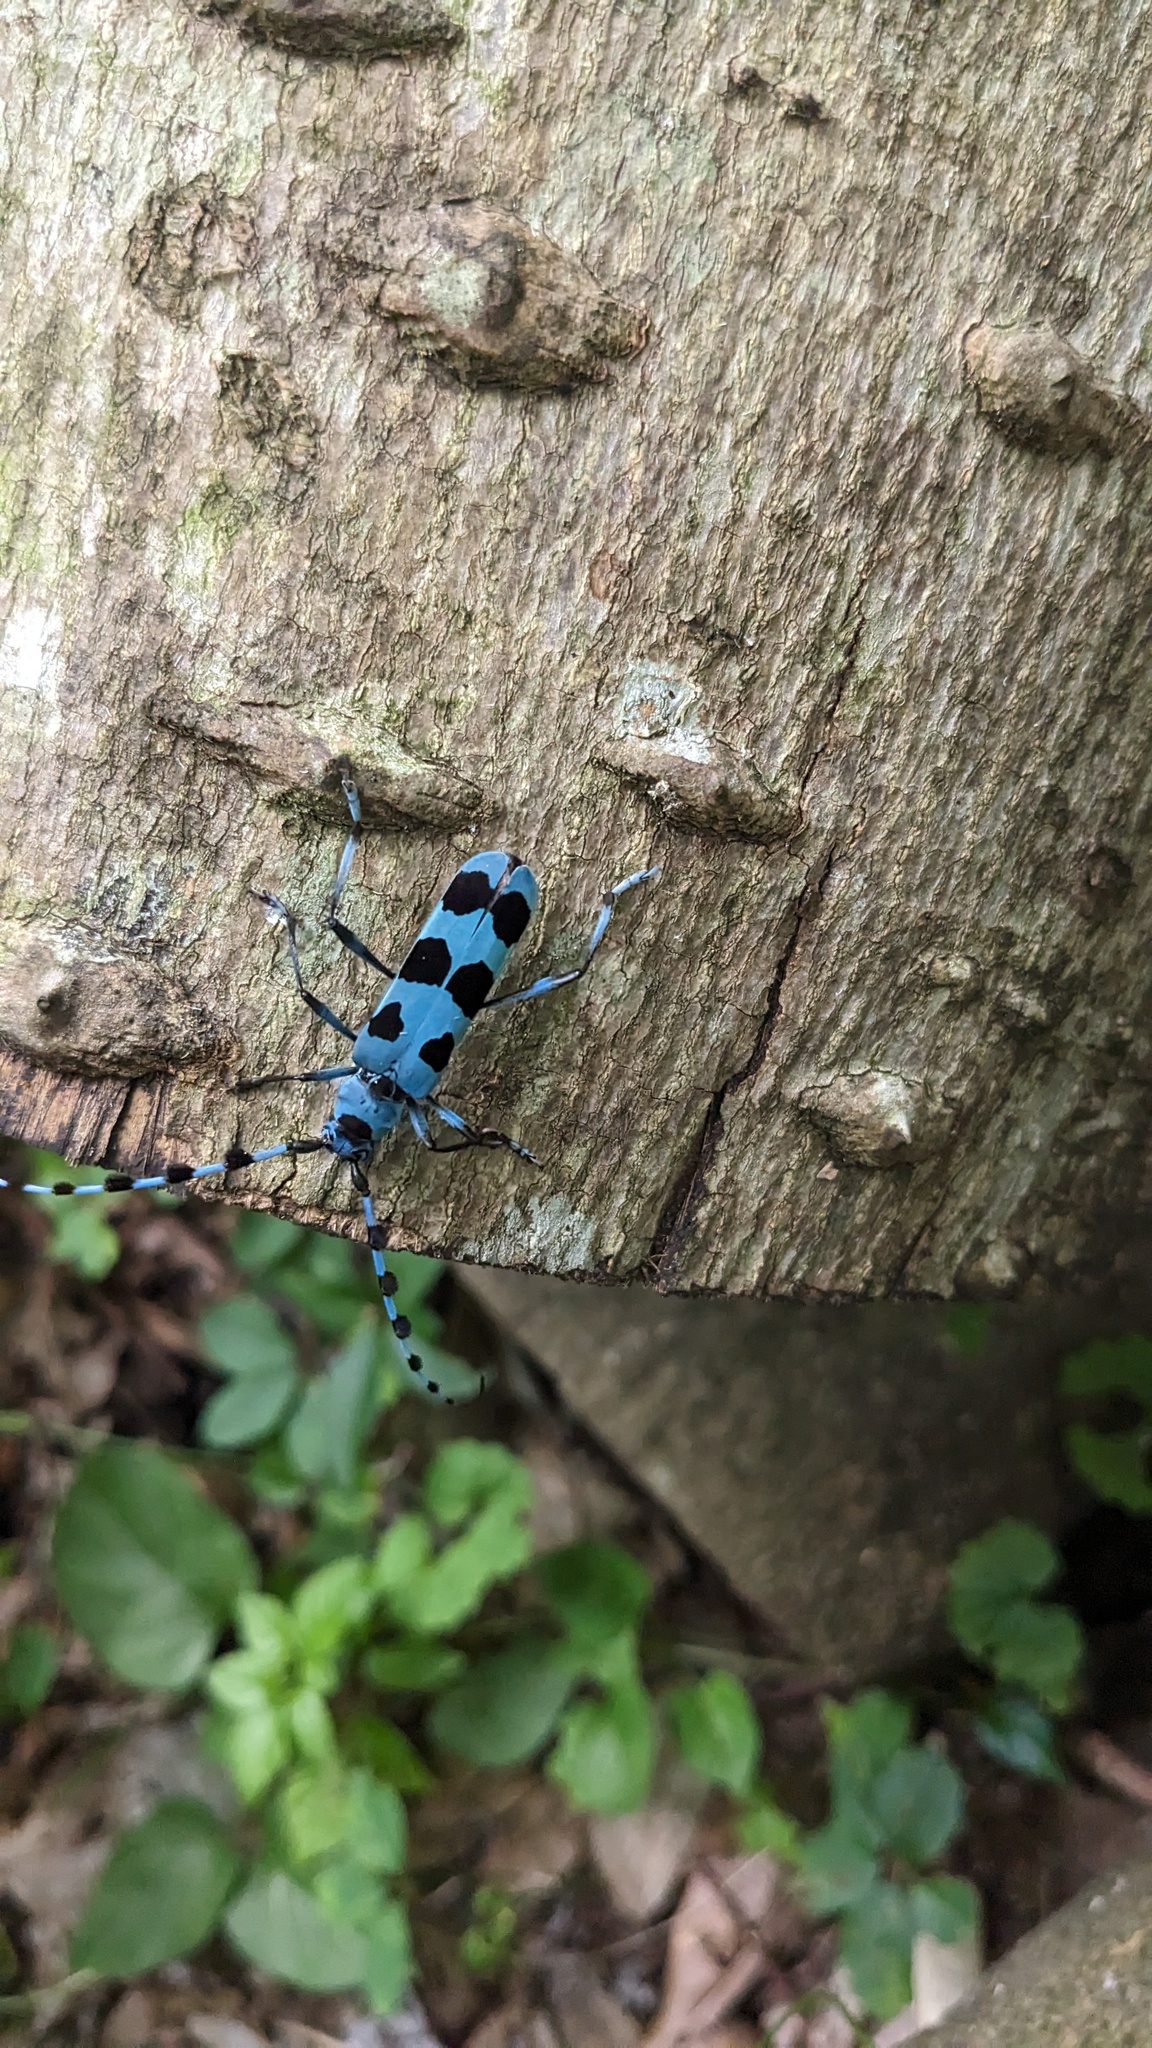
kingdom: Animalia
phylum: Arthropoda
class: Insecta
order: Coleoptera
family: Cerambycidae
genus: Rosalia
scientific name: Rosalia batesi
